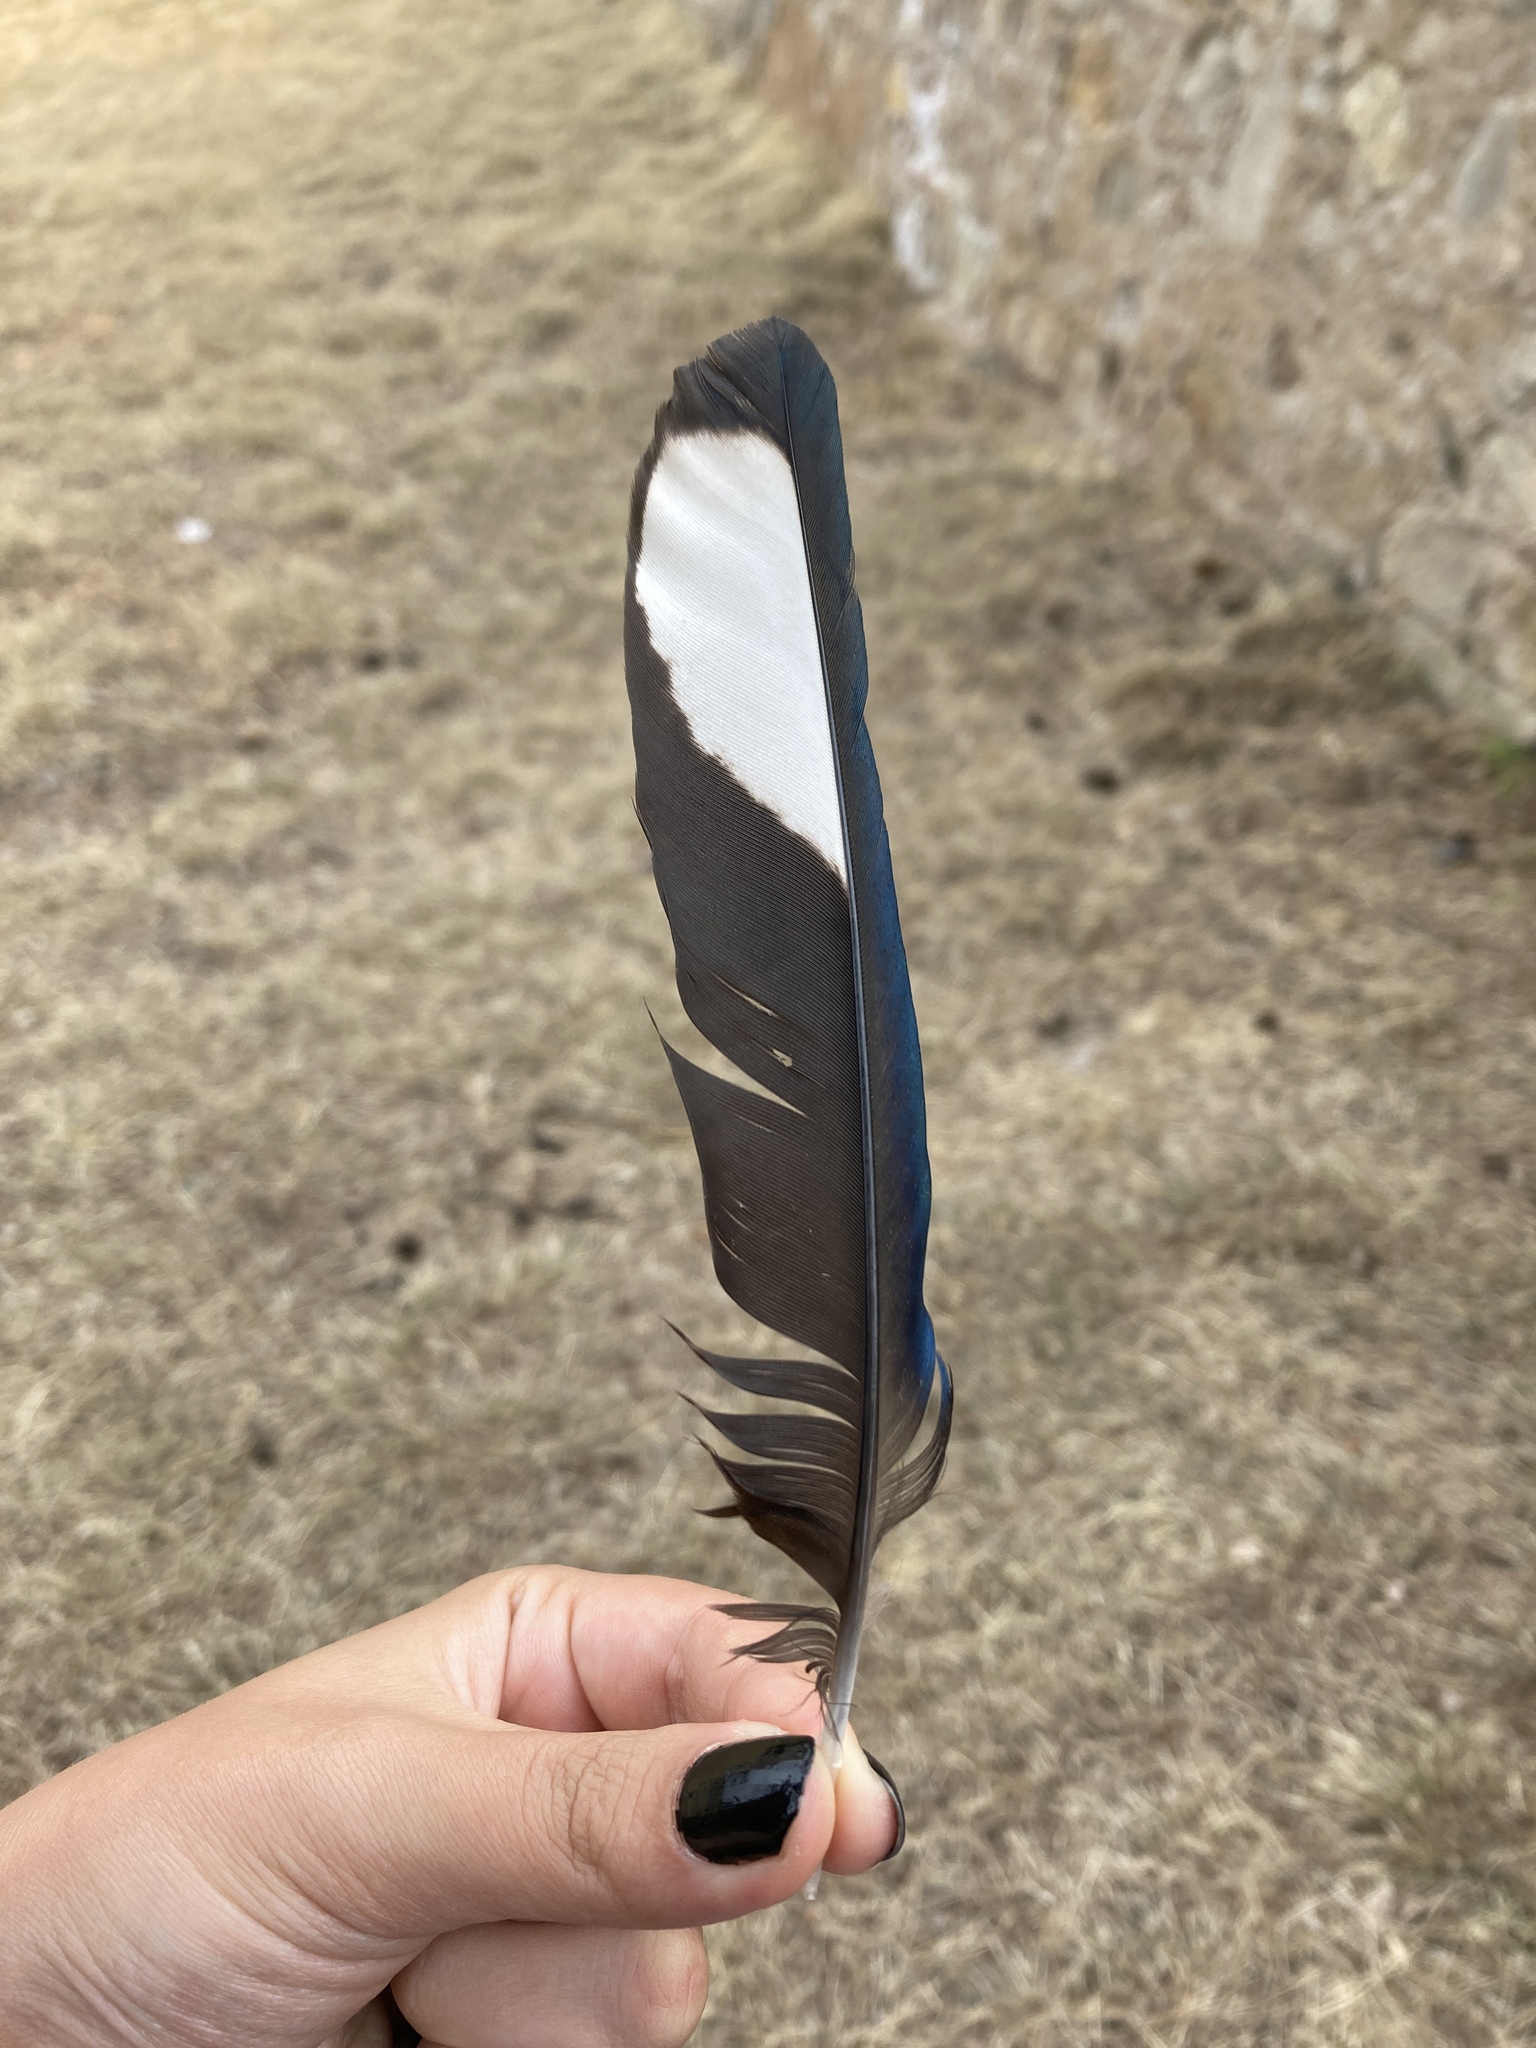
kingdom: Animalia
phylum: Chordata
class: Aves
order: Passeriformes
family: Corvidae
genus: Pica
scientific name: Pica pica
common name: Eurasian magpie
